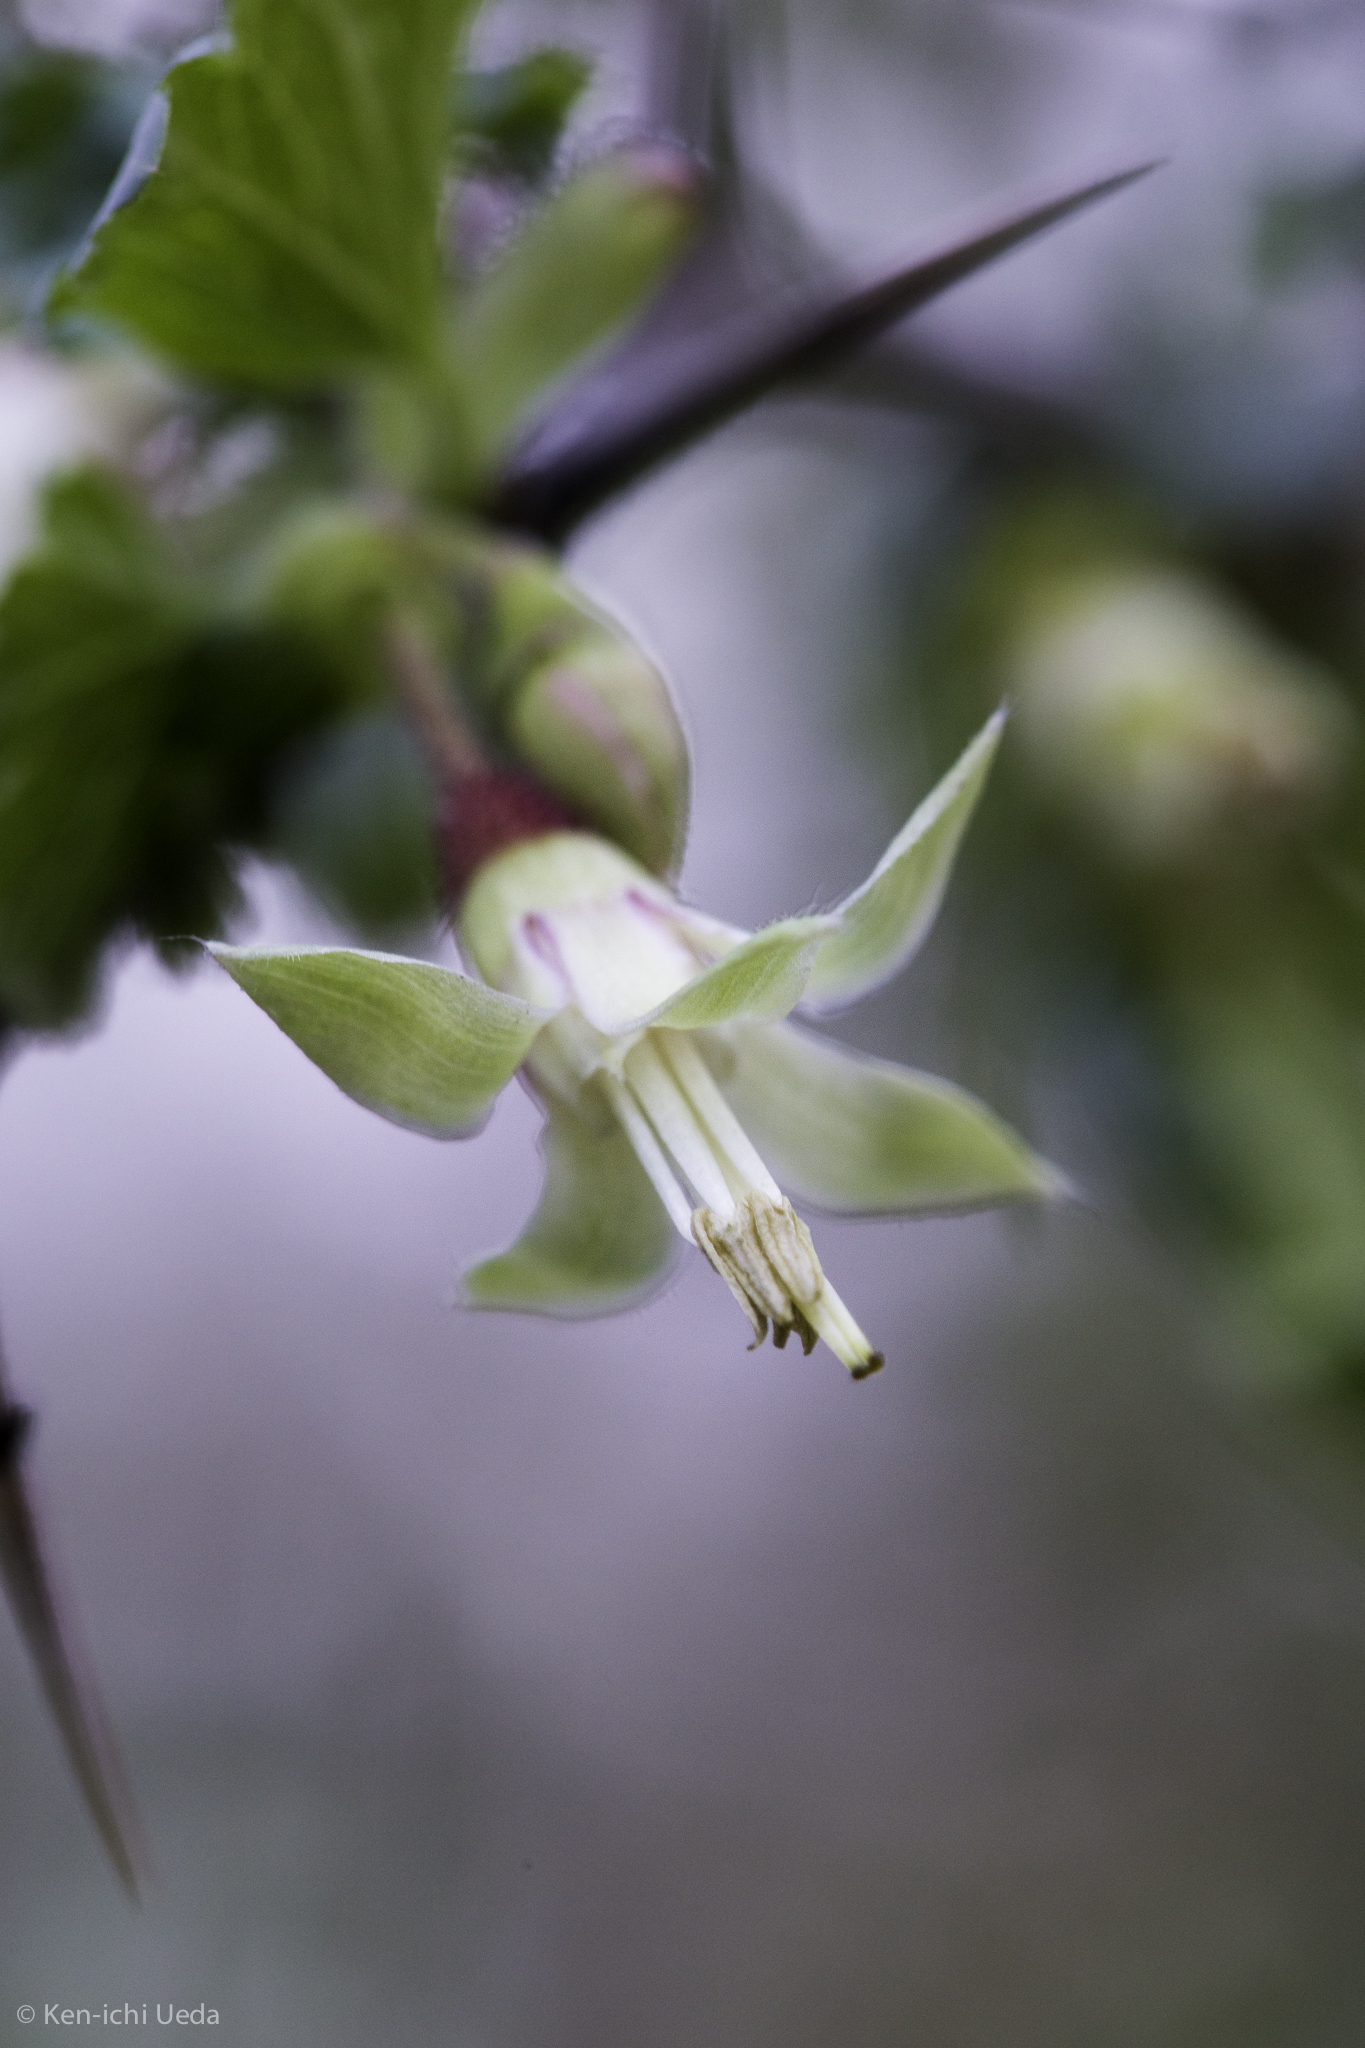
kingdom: Plantae
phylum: Tracheophyta
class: Magnoliopsida
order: Saxifragales
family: Grossulariaceae
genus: Ribes
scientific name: Ribes californicum
